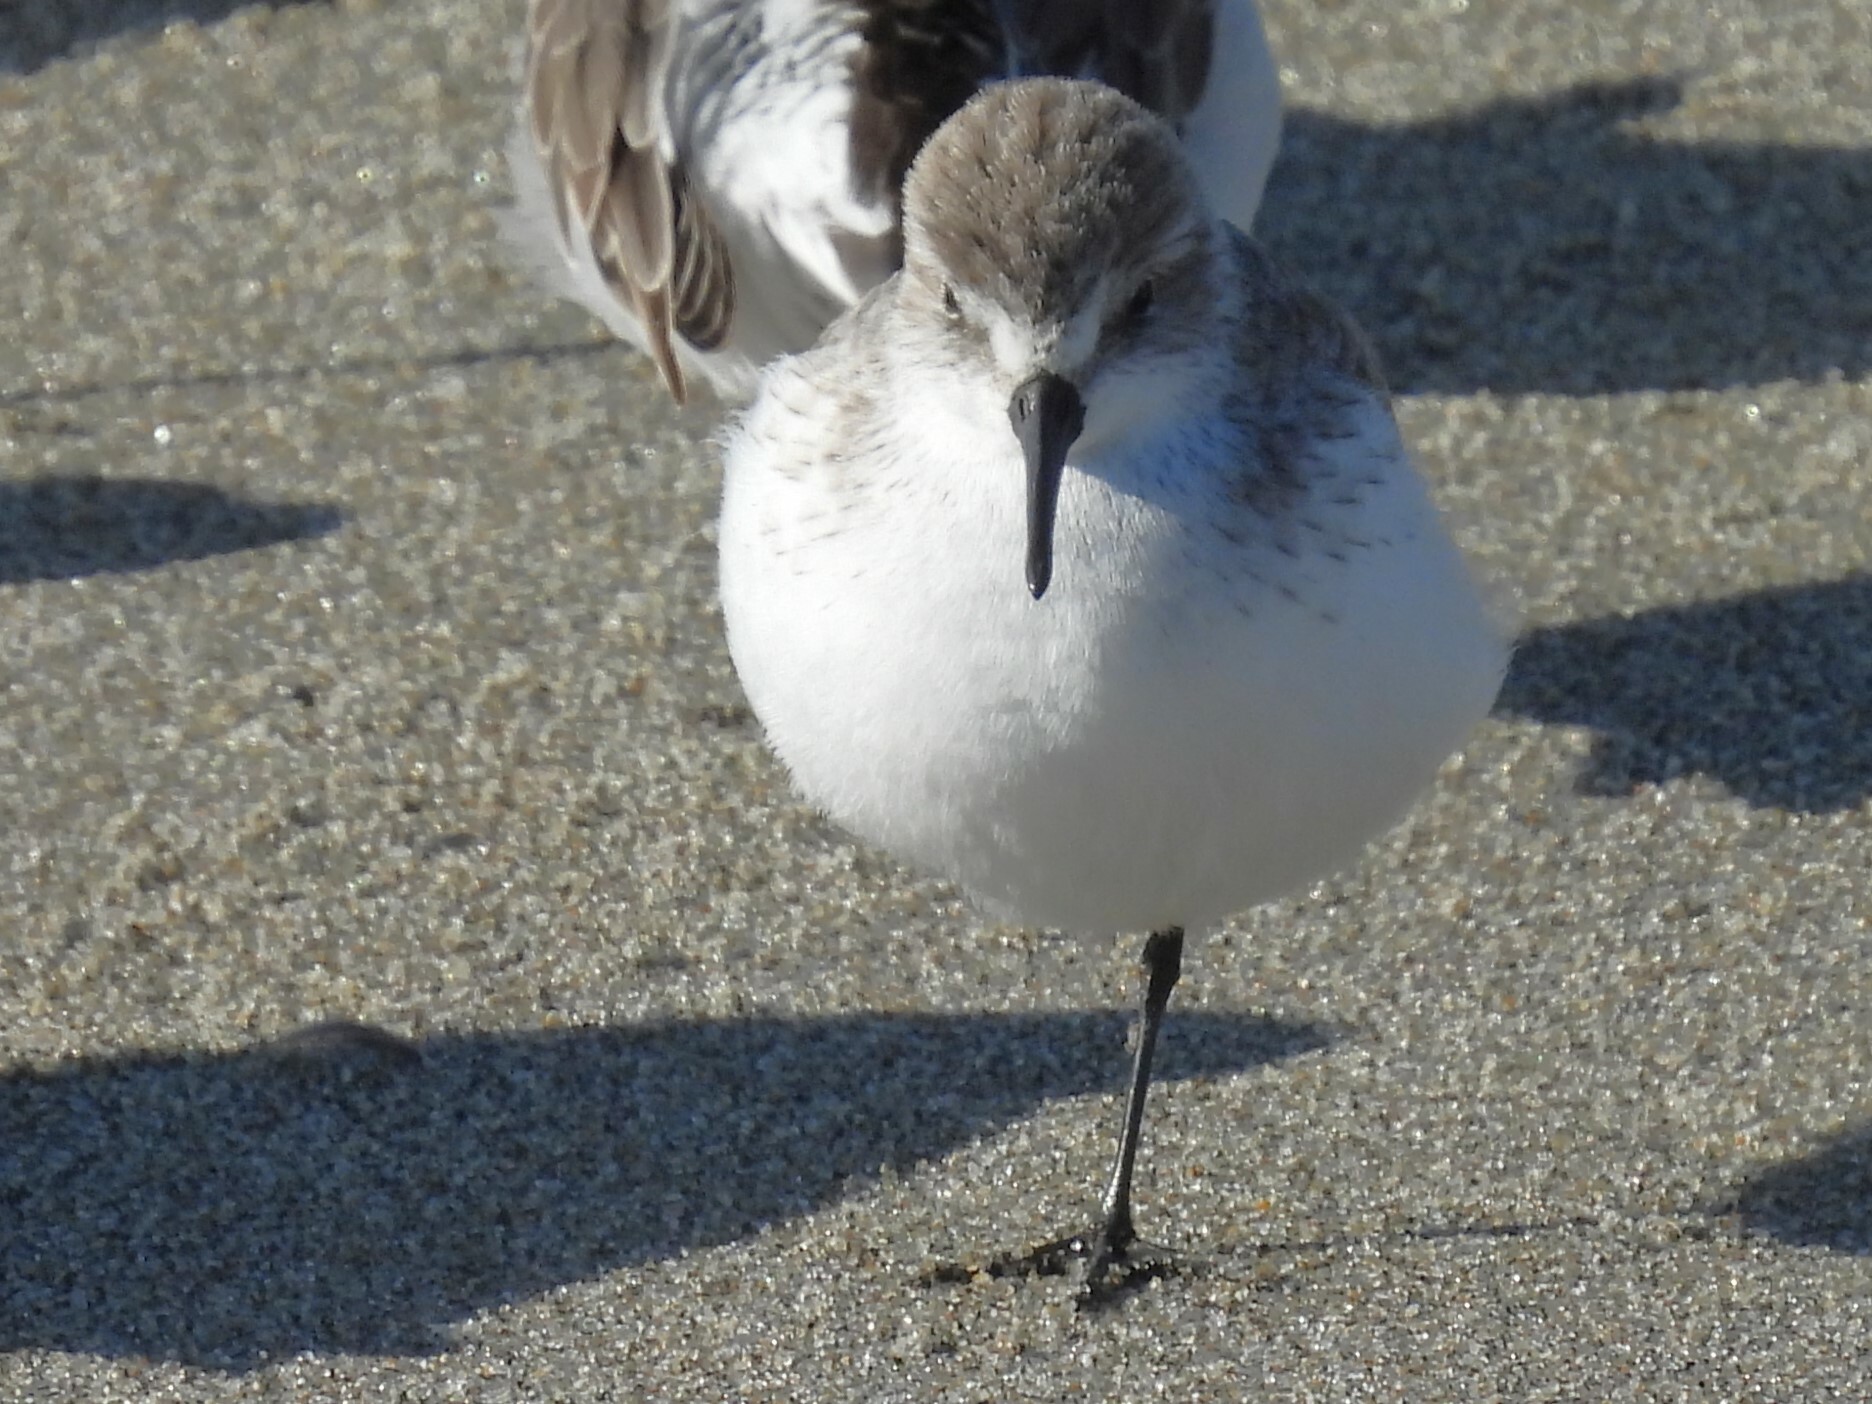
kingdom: Animalia
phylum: Chordata
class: Aves
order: Charadriiformes
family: Scolopacidae
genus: Calidris
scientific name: Calidris mauri
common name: Western sandpiper
